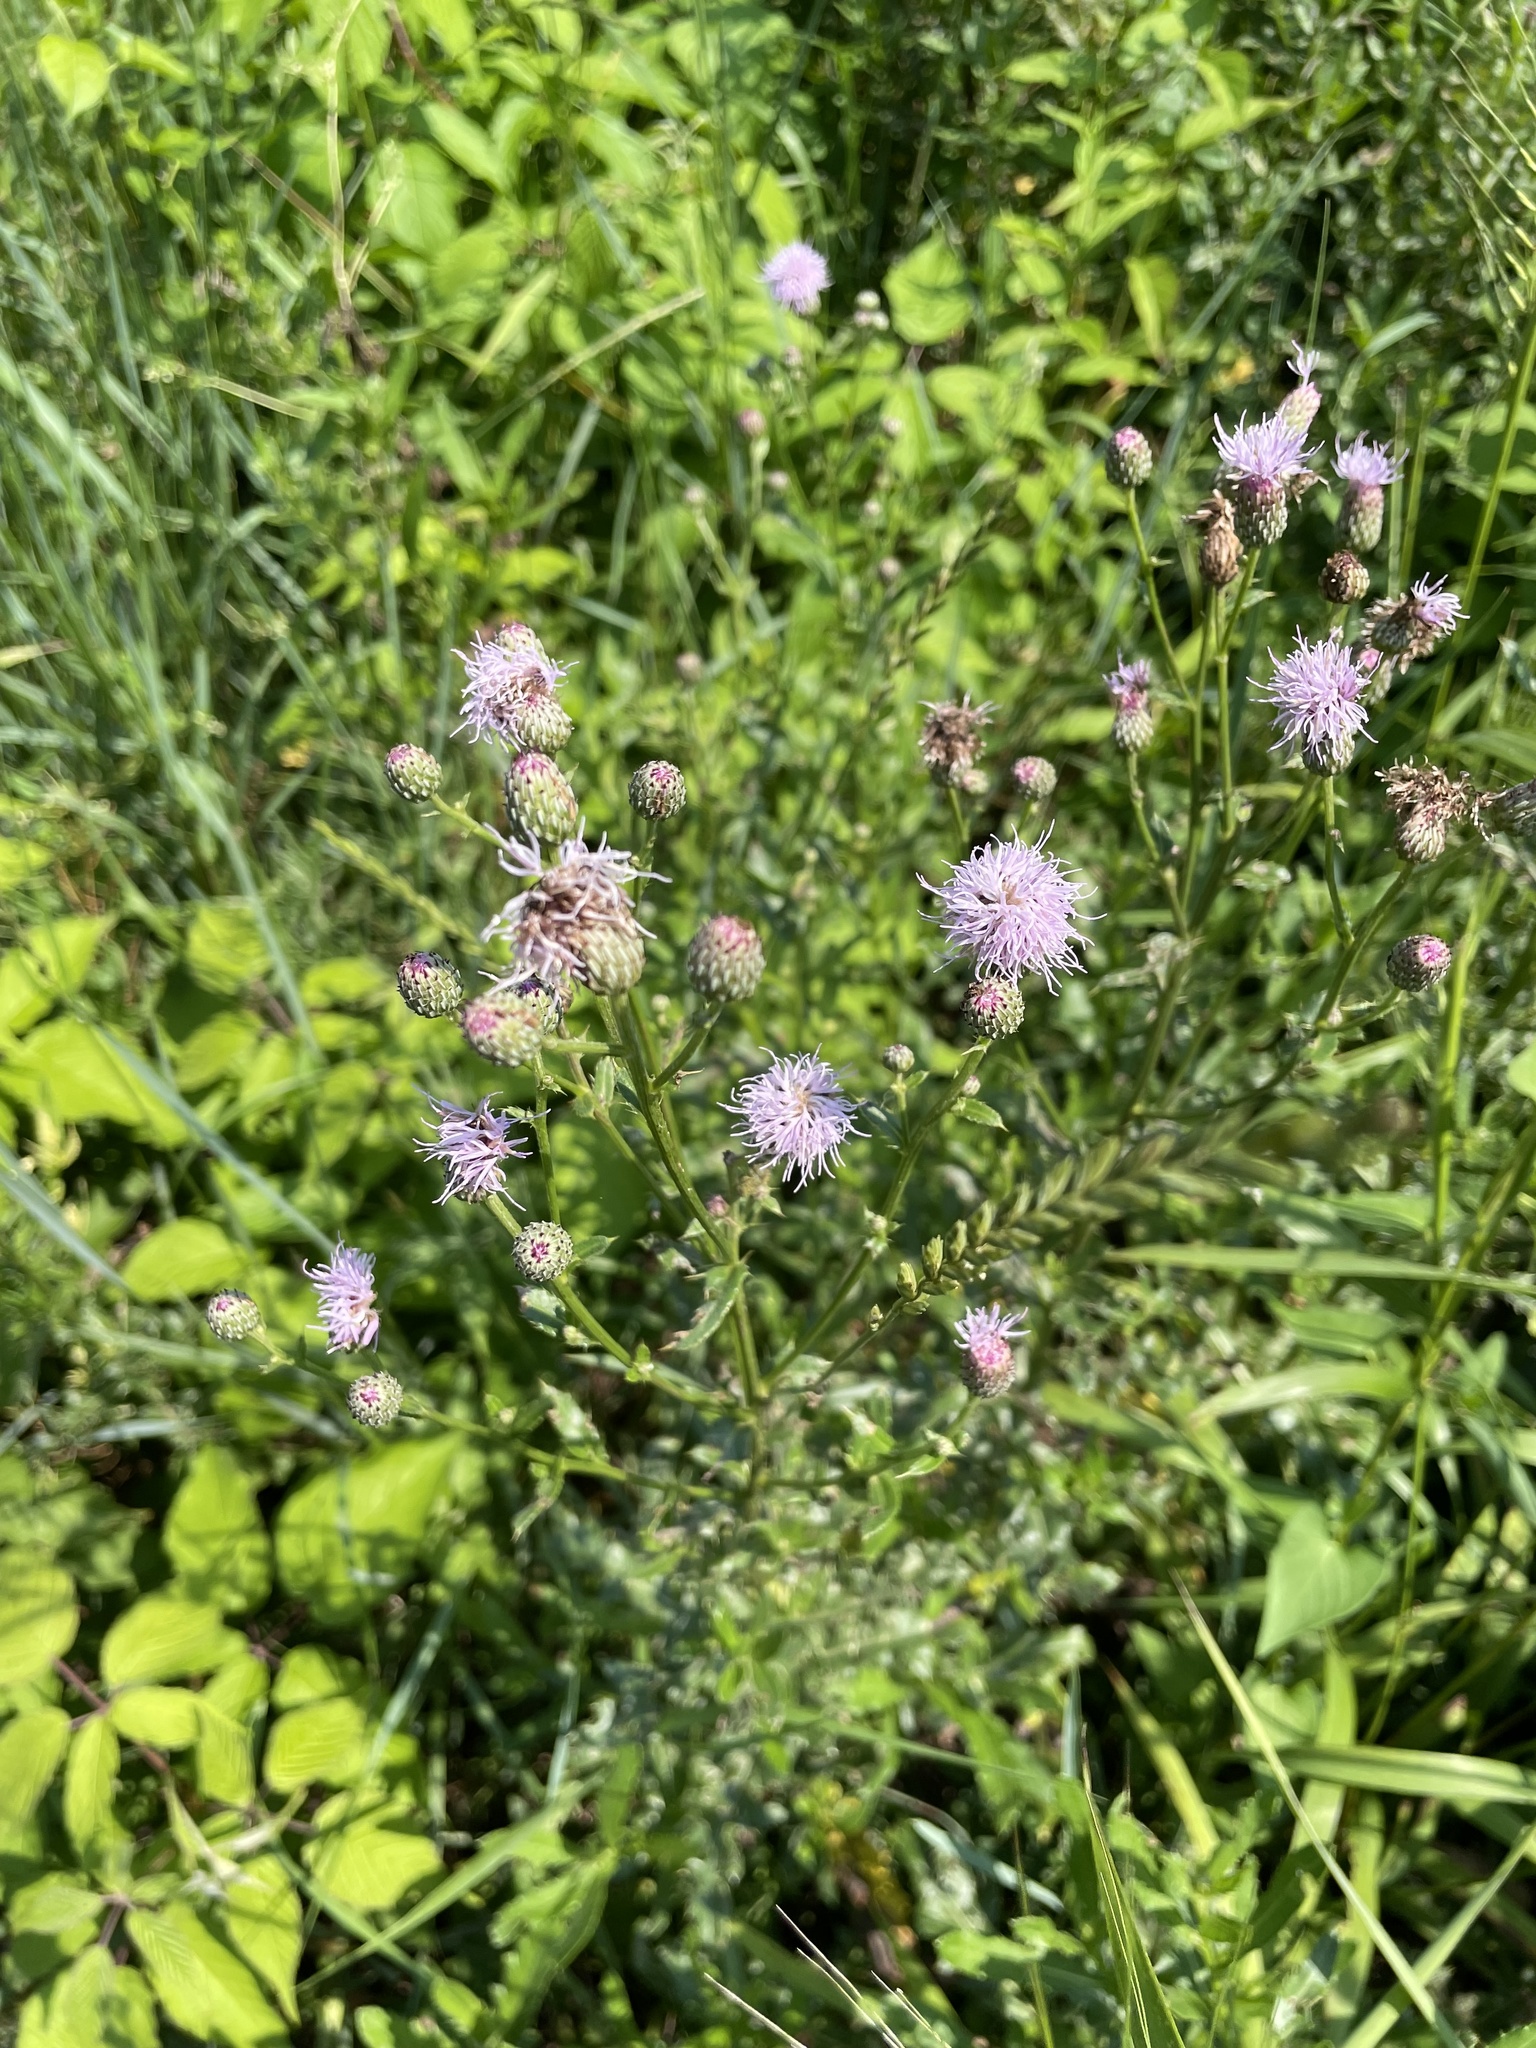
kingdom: Plantae
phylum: Tracheophyta
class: Magnoliopsida
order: Asterales
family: Asteraceae
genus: Cirsium
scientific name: Cirsium arvense
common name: Creeping thistle
